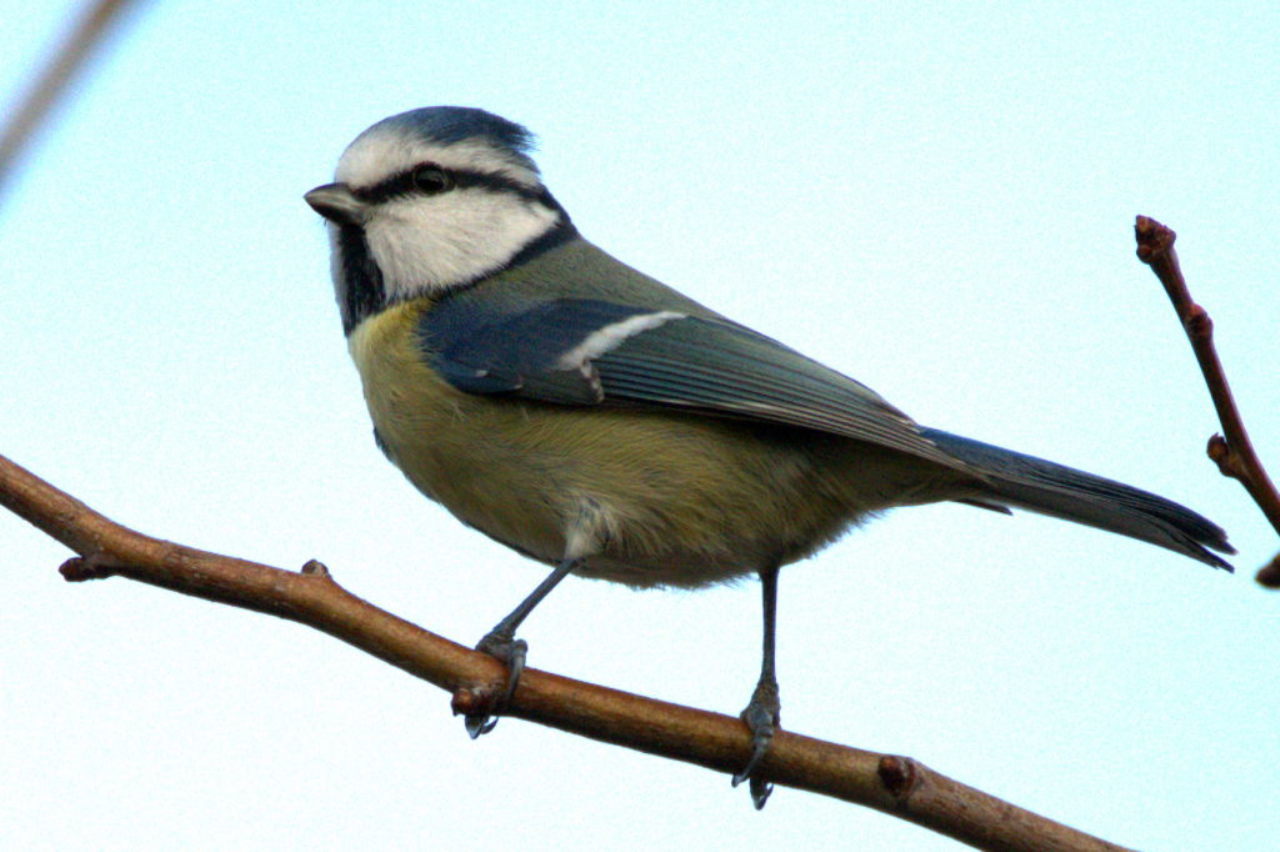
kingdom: Animalia
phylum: Chordata
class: Aves
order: Passeriformes
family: Paridae
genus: Cyanistes
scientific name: Cyanistes caeruleus
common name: Eurasian blue tit
